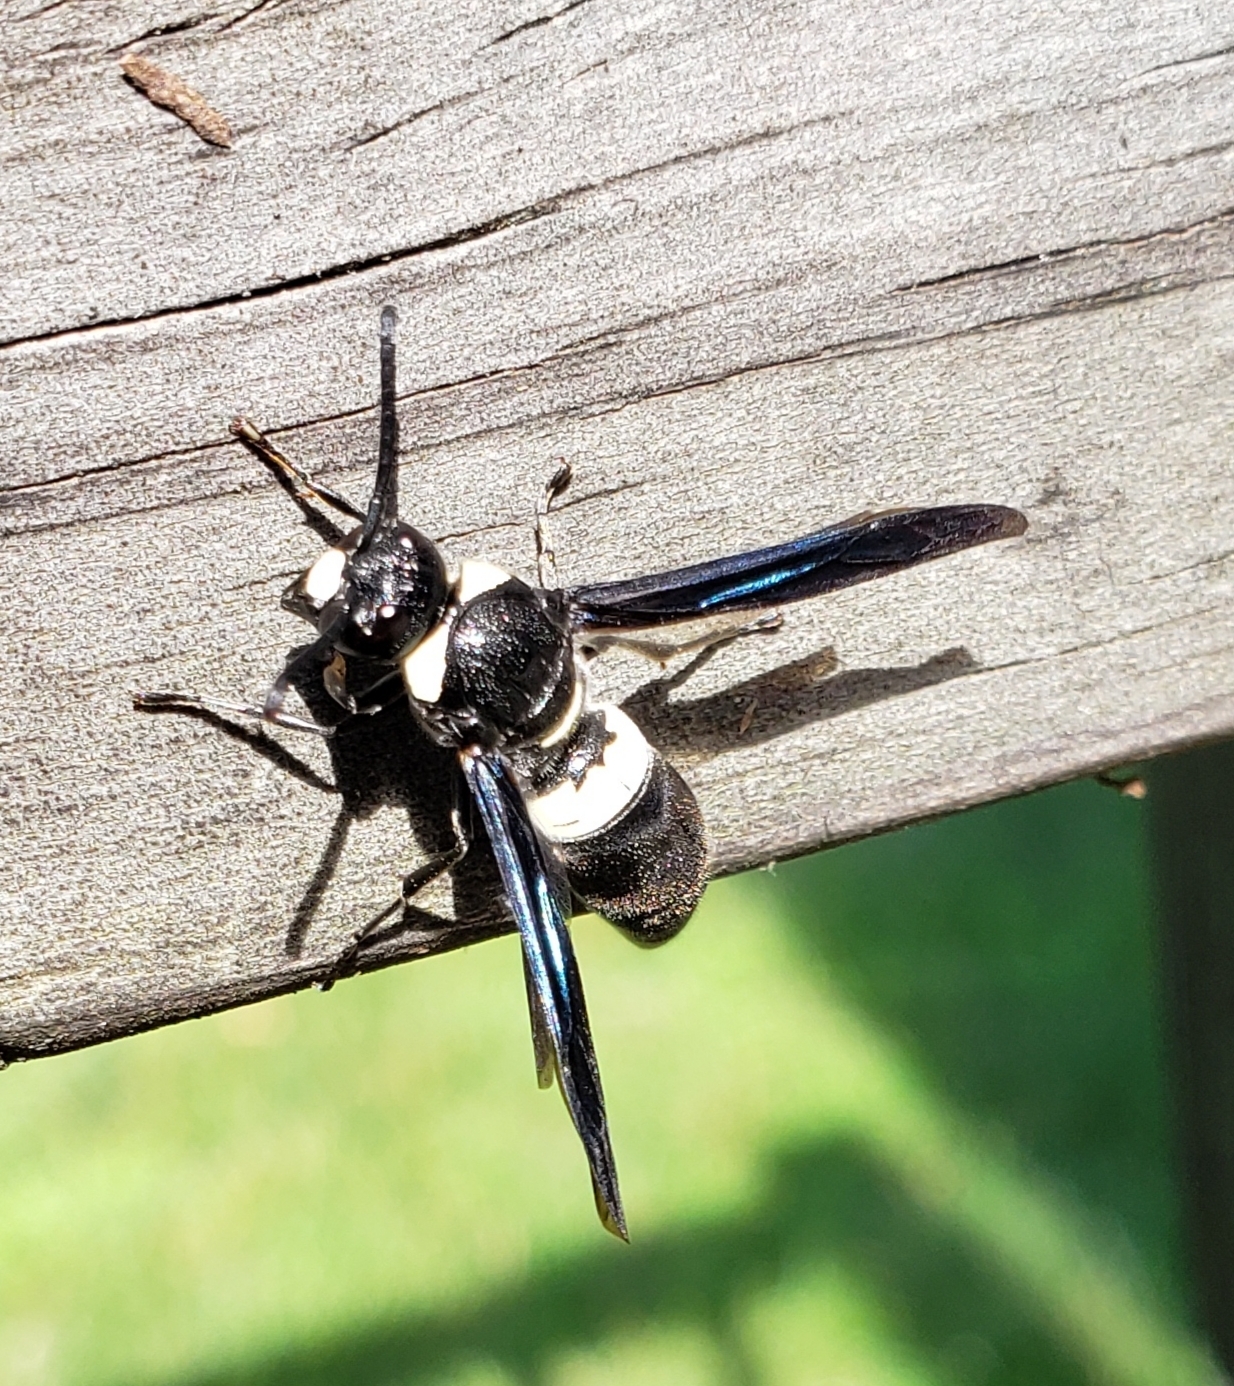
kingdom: Animalia
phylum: Arthropoda
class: Insecta
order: Hymenoptera
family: Eumenidae
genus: Monobia
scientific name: Monobia quadridens
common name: Four-toothed mason wasp
